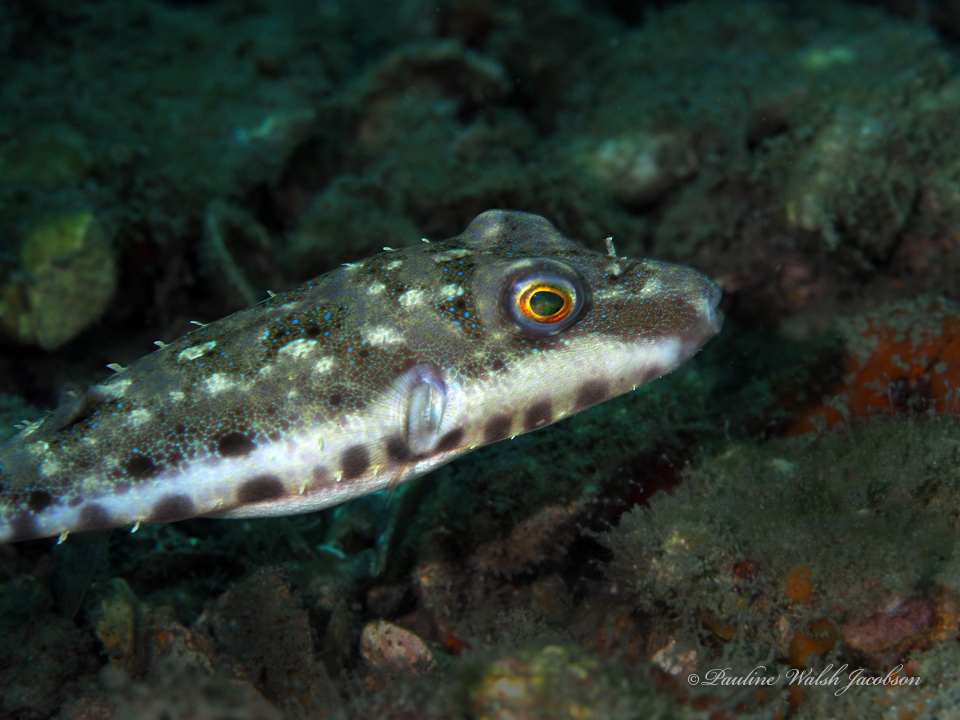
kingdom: Animalia
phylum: Chordata
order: Tetraodontiformes
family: Tetraodontidae
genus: Sphoeroides
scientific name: Sphoeroides spengleri
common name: Bandtail puffer
